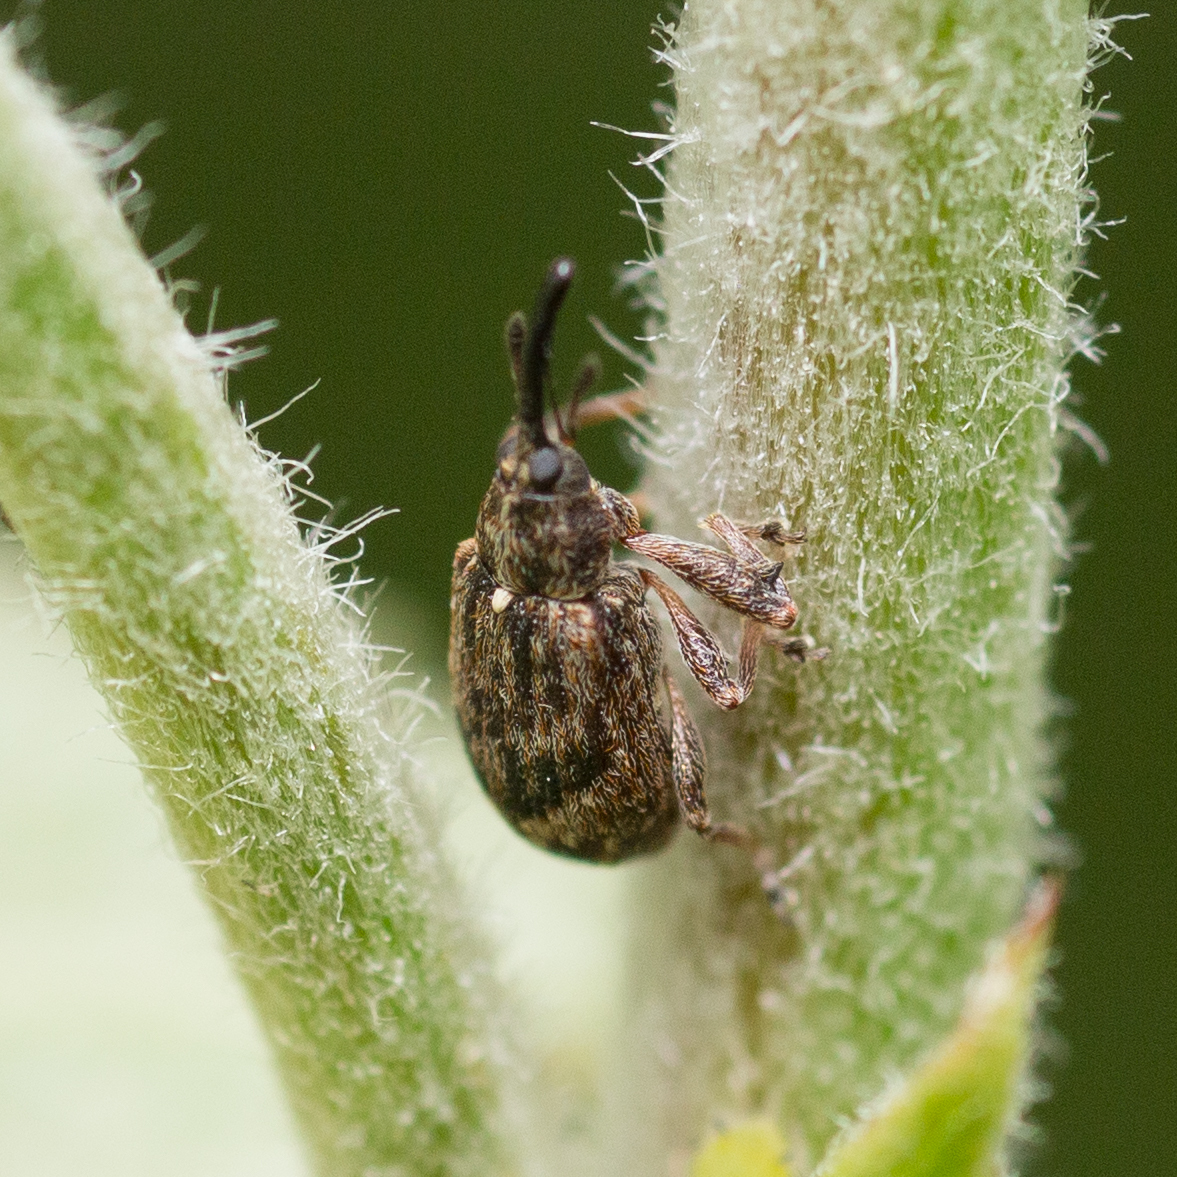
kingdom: Animalia
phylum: Arthropoda
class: Insecta
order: Coleoptera
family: Curculionidae
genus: Anthonomus
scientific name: Anthonomus pomorum
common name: Apple-blossom weevil
